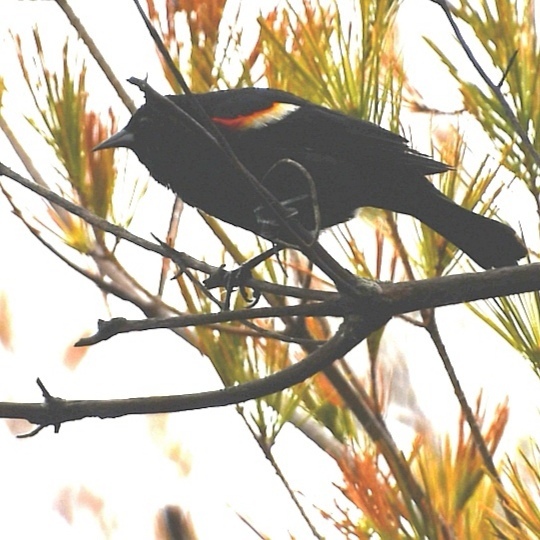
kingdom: Animalia
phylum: Chordata
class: Aves
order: Passeriformes
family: Icteridae
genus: Agelaius
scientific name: Agelaius phoeniceus
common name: Red-winged blackbird
